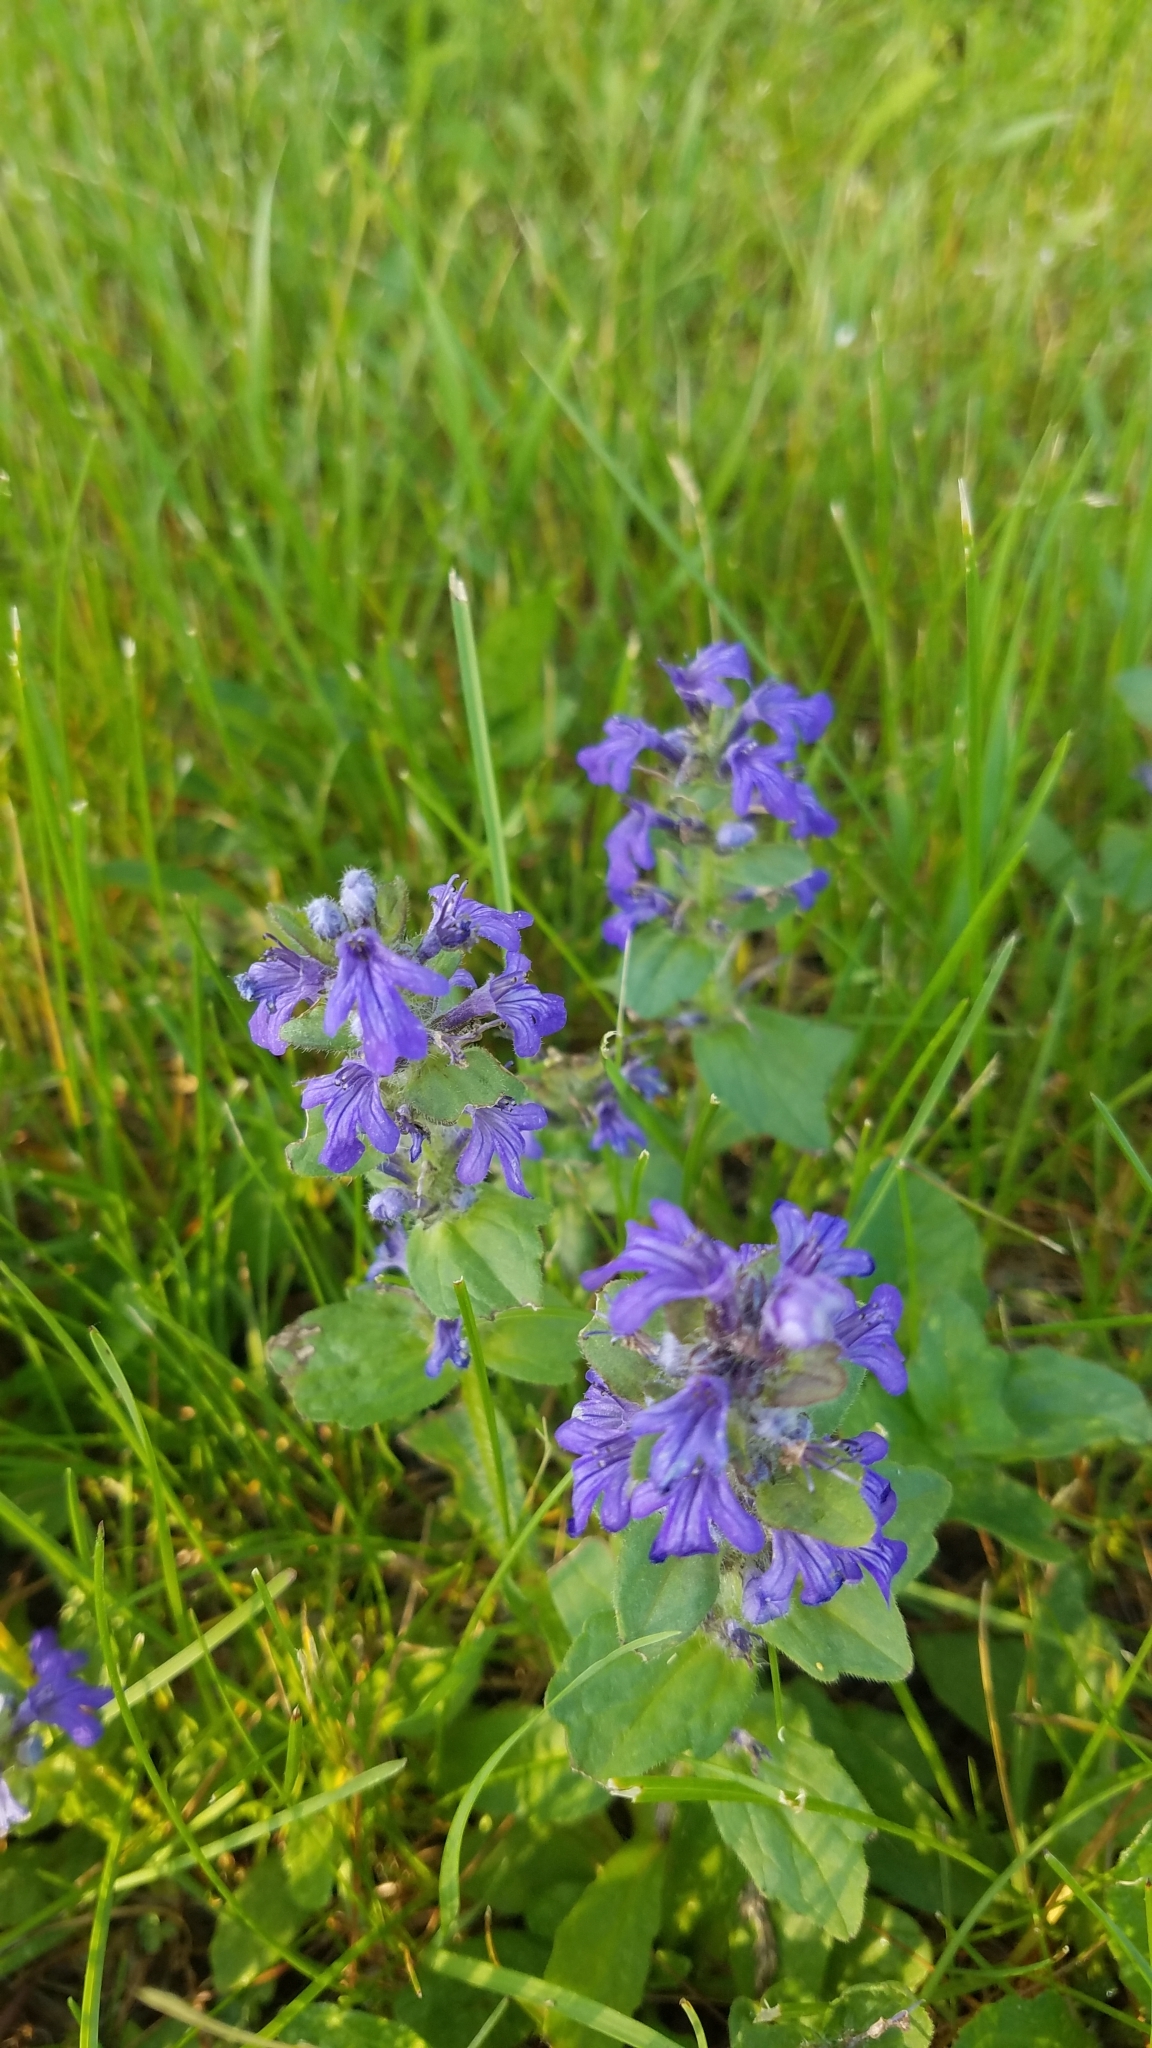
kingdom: Plantae
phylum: Tracheophyta
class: Magnoliopsida
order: Lamiales
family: Lamiaceae
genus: Ajuga
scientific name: Ajuga genevensis
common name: Blue bugle
